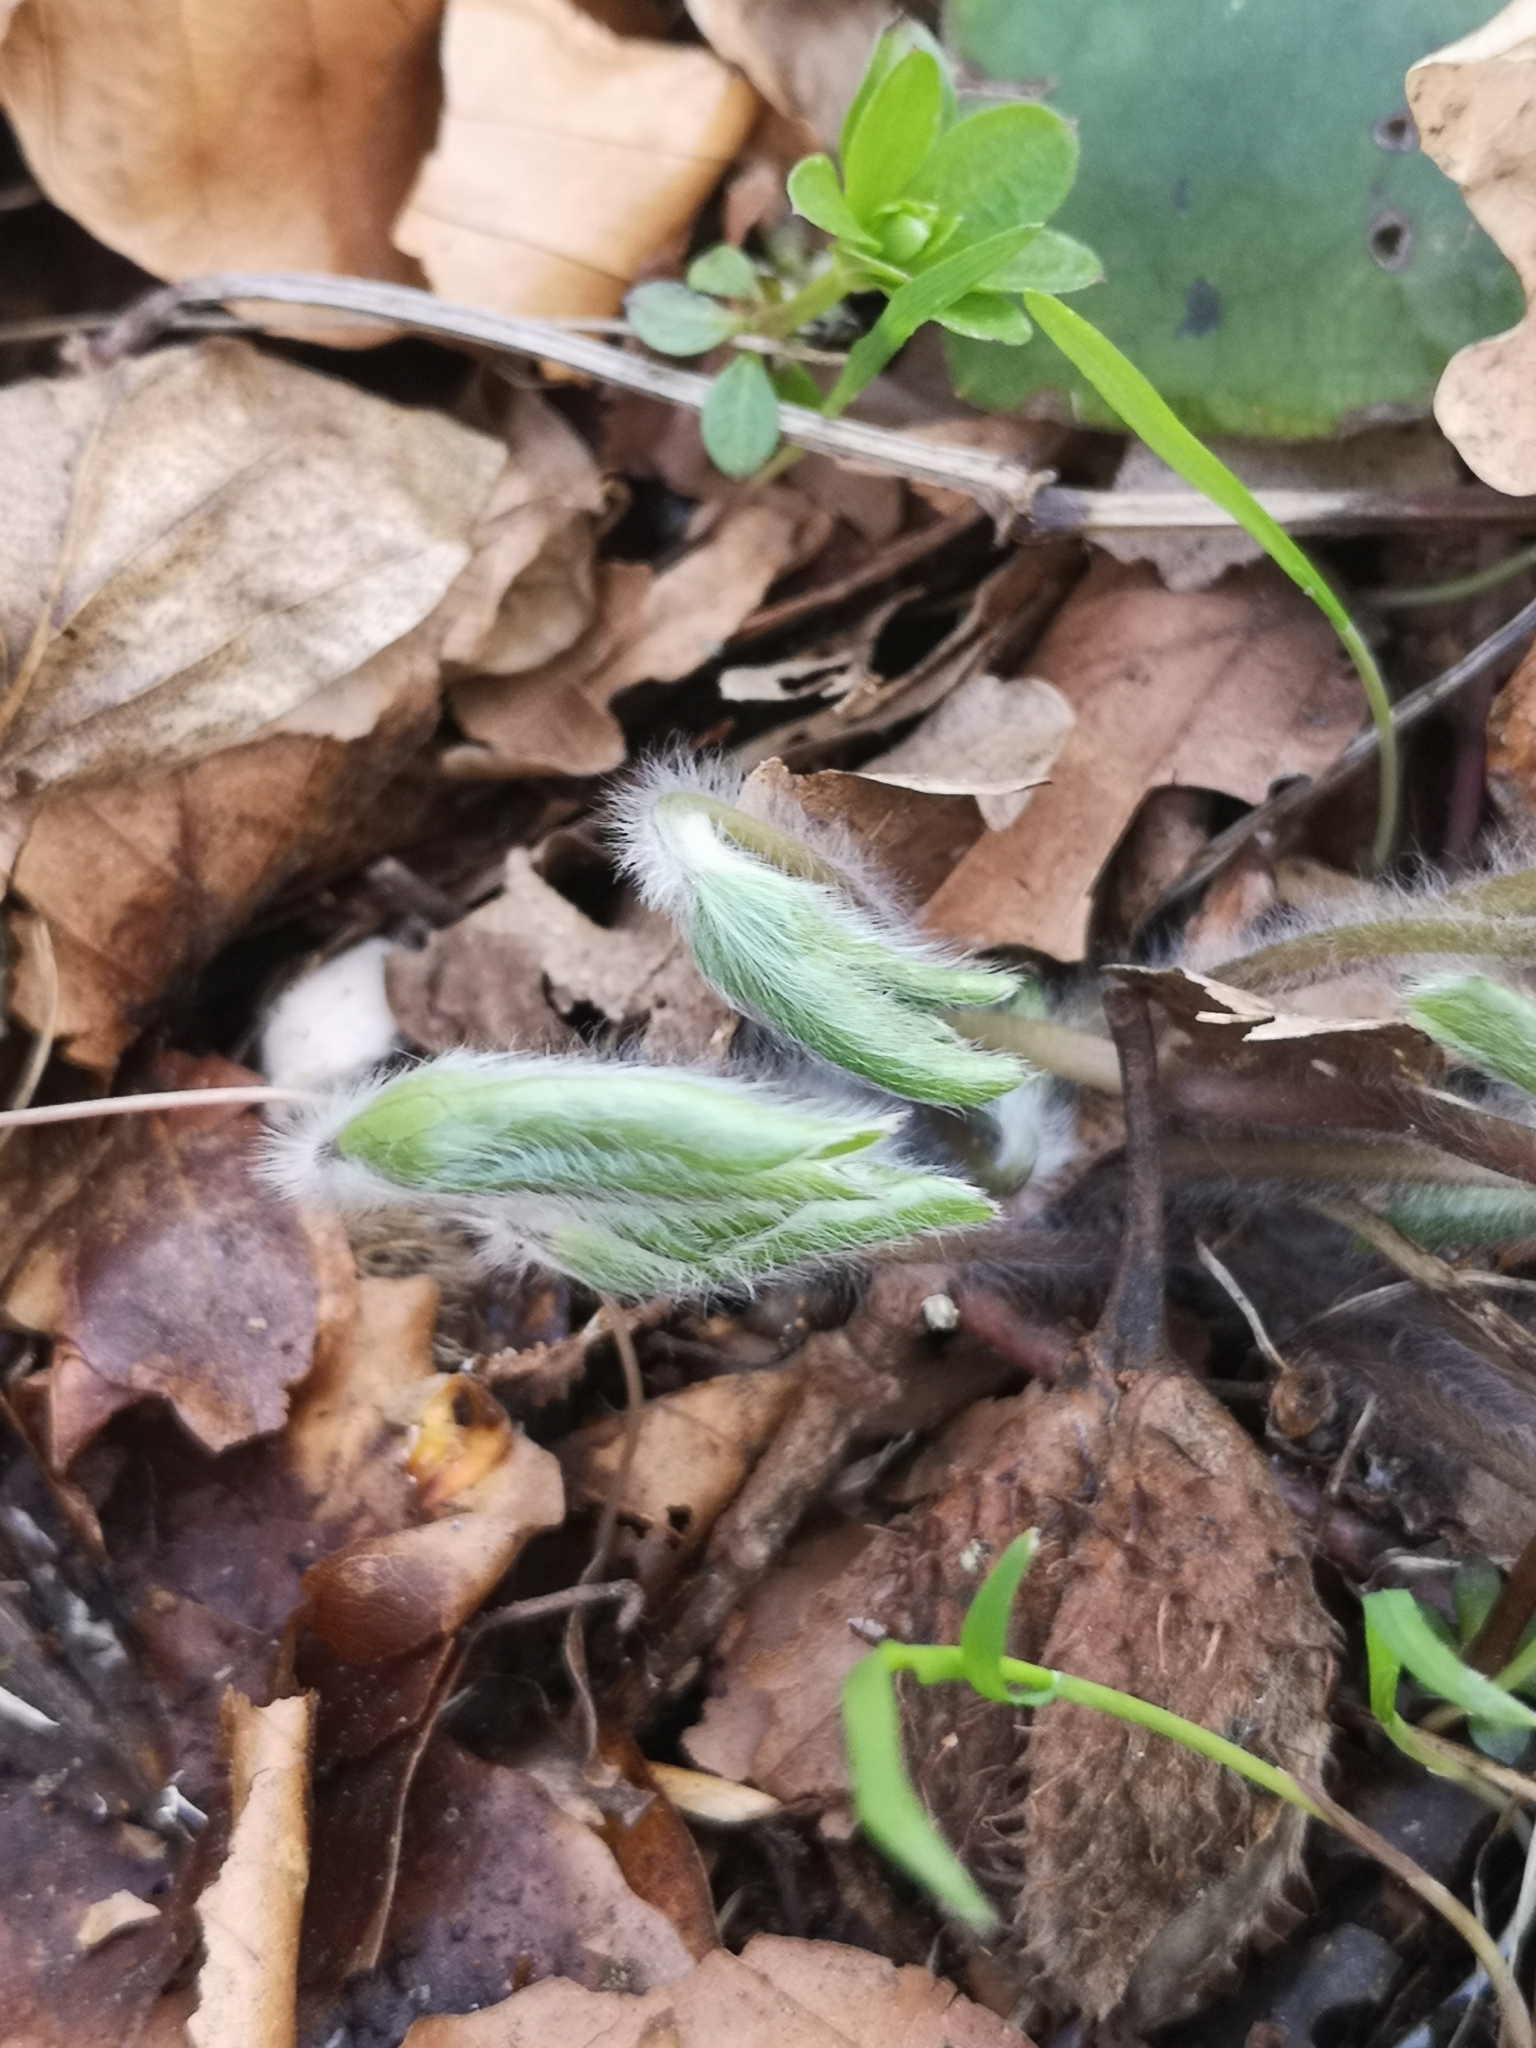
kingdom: Plantae
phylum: Tracheophyta
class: Magnoliopsida
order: Ranunculales
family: Ranunculaceae
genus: Hepatica
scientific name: Hepatica nobilis
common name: Liverleaf
